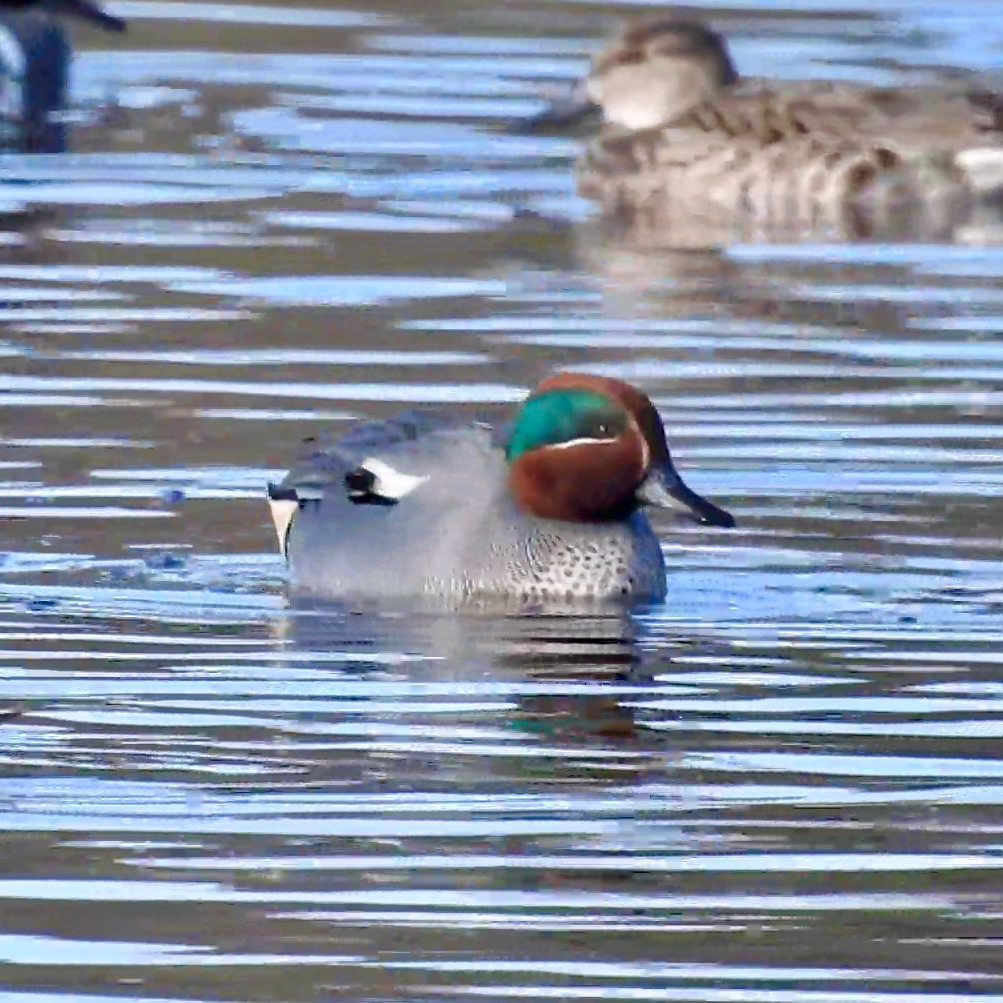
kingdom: Animalia
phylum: Chordata
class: Aves
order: Anseriformes
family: Anatidae
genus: Anas
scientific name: Anas crecca
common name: Eurasian teal
